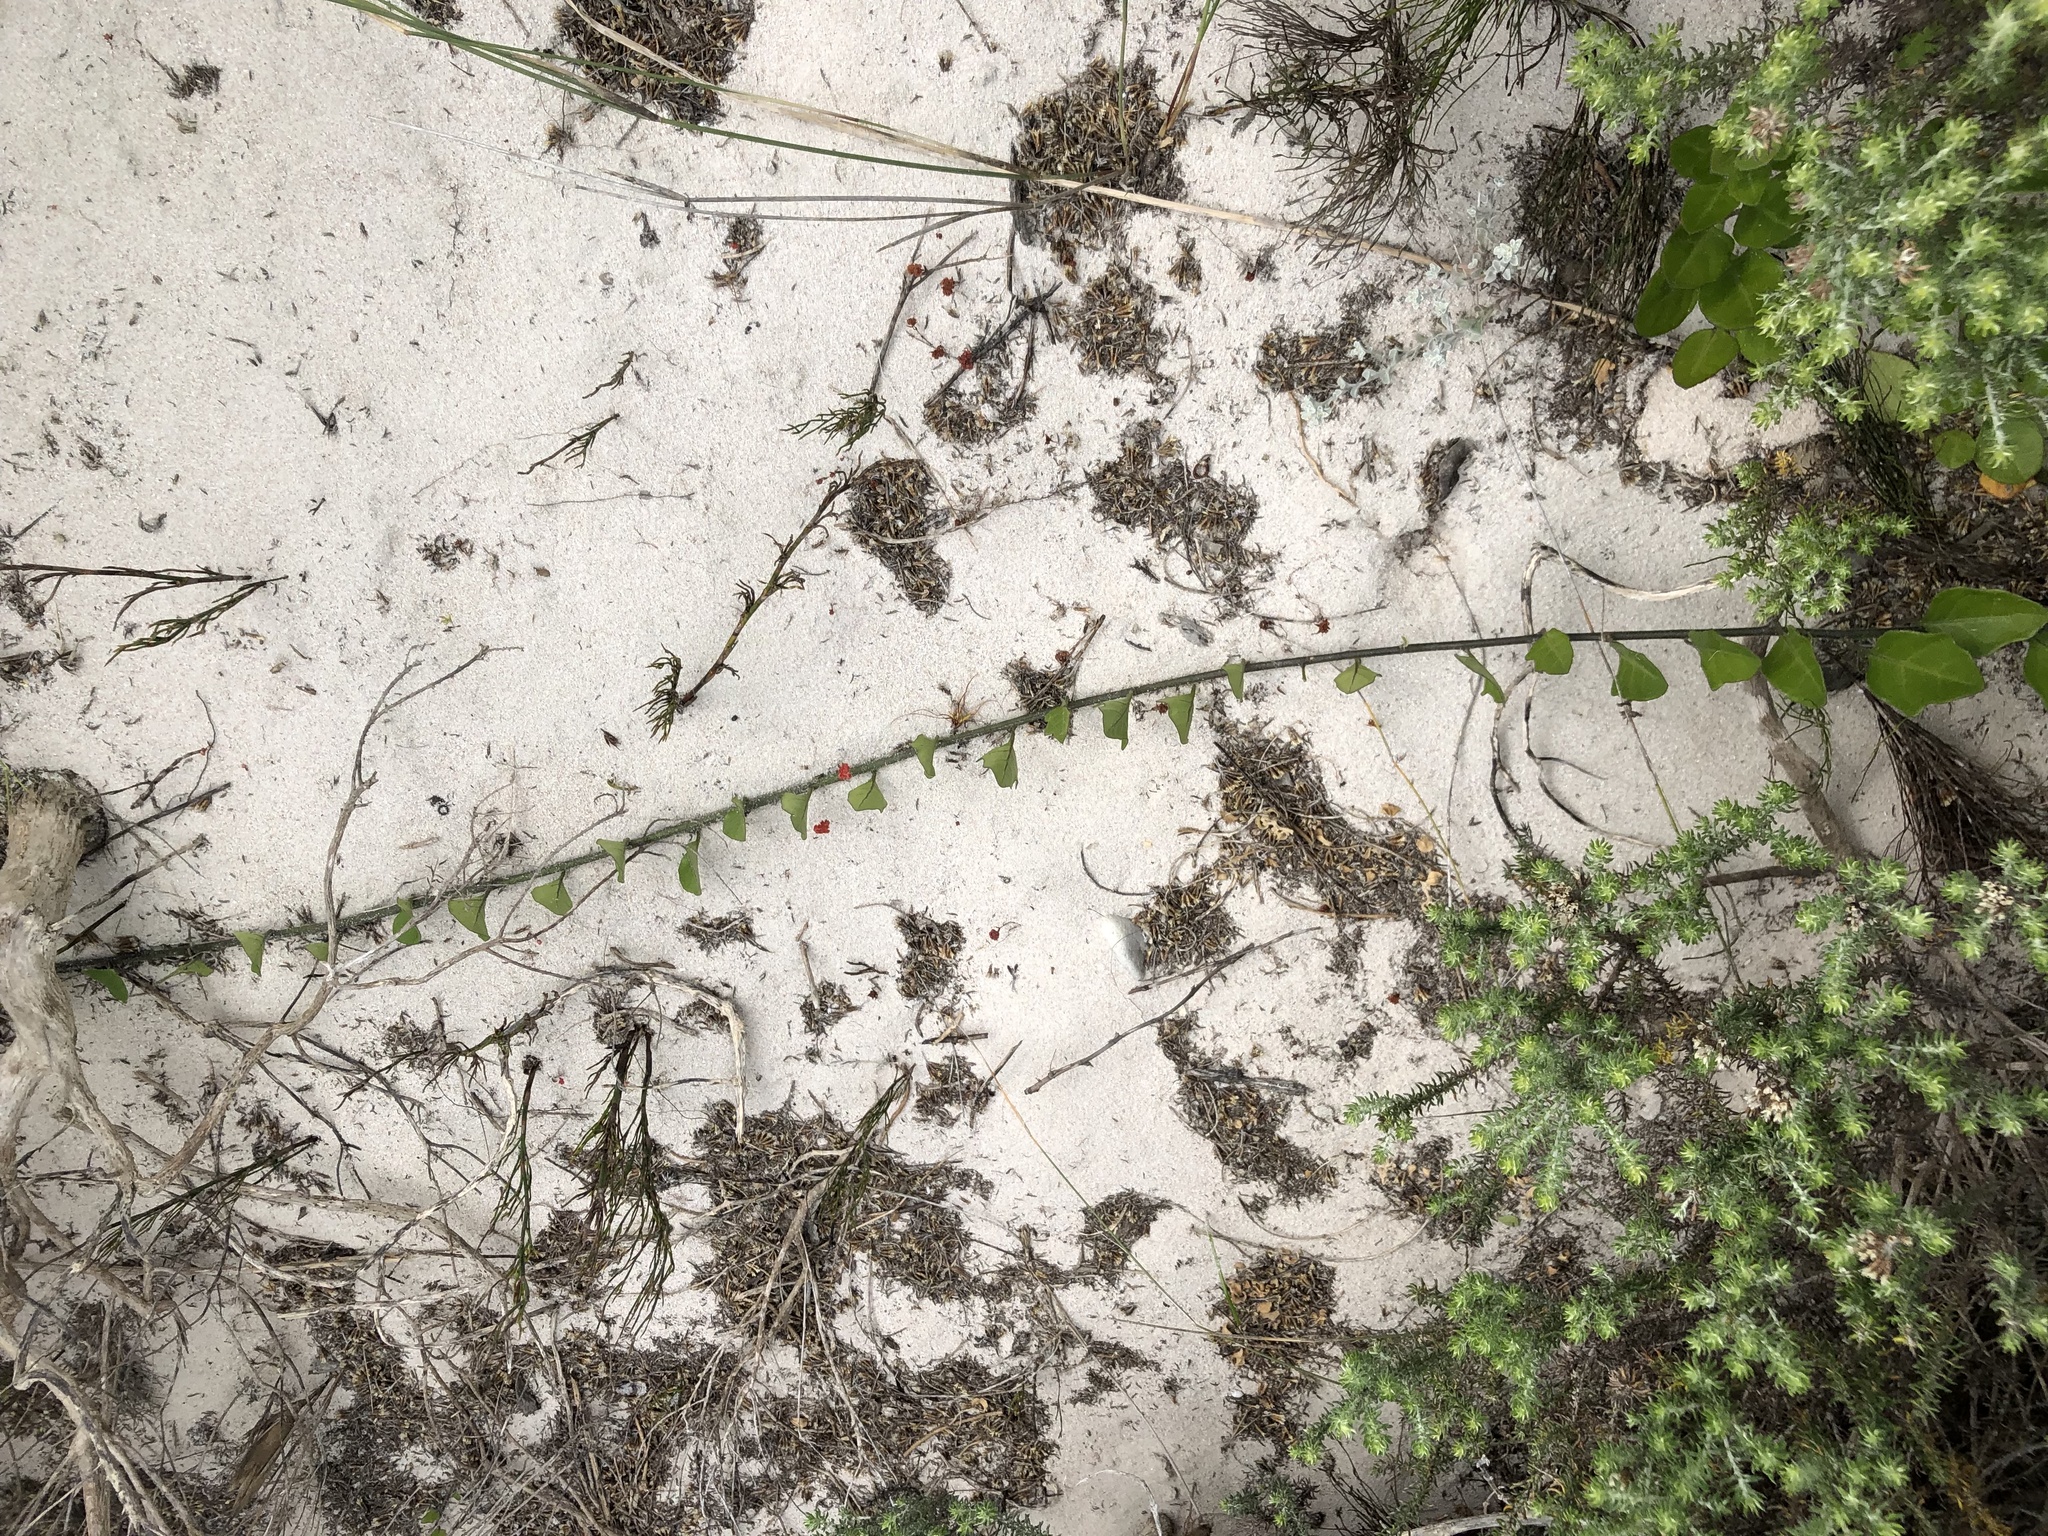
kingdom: Plantae
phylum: Tracheophyta
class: Magnoliopsida
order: Solanales
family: Solanaceae
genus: Solanum
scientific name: Solanum africanum
